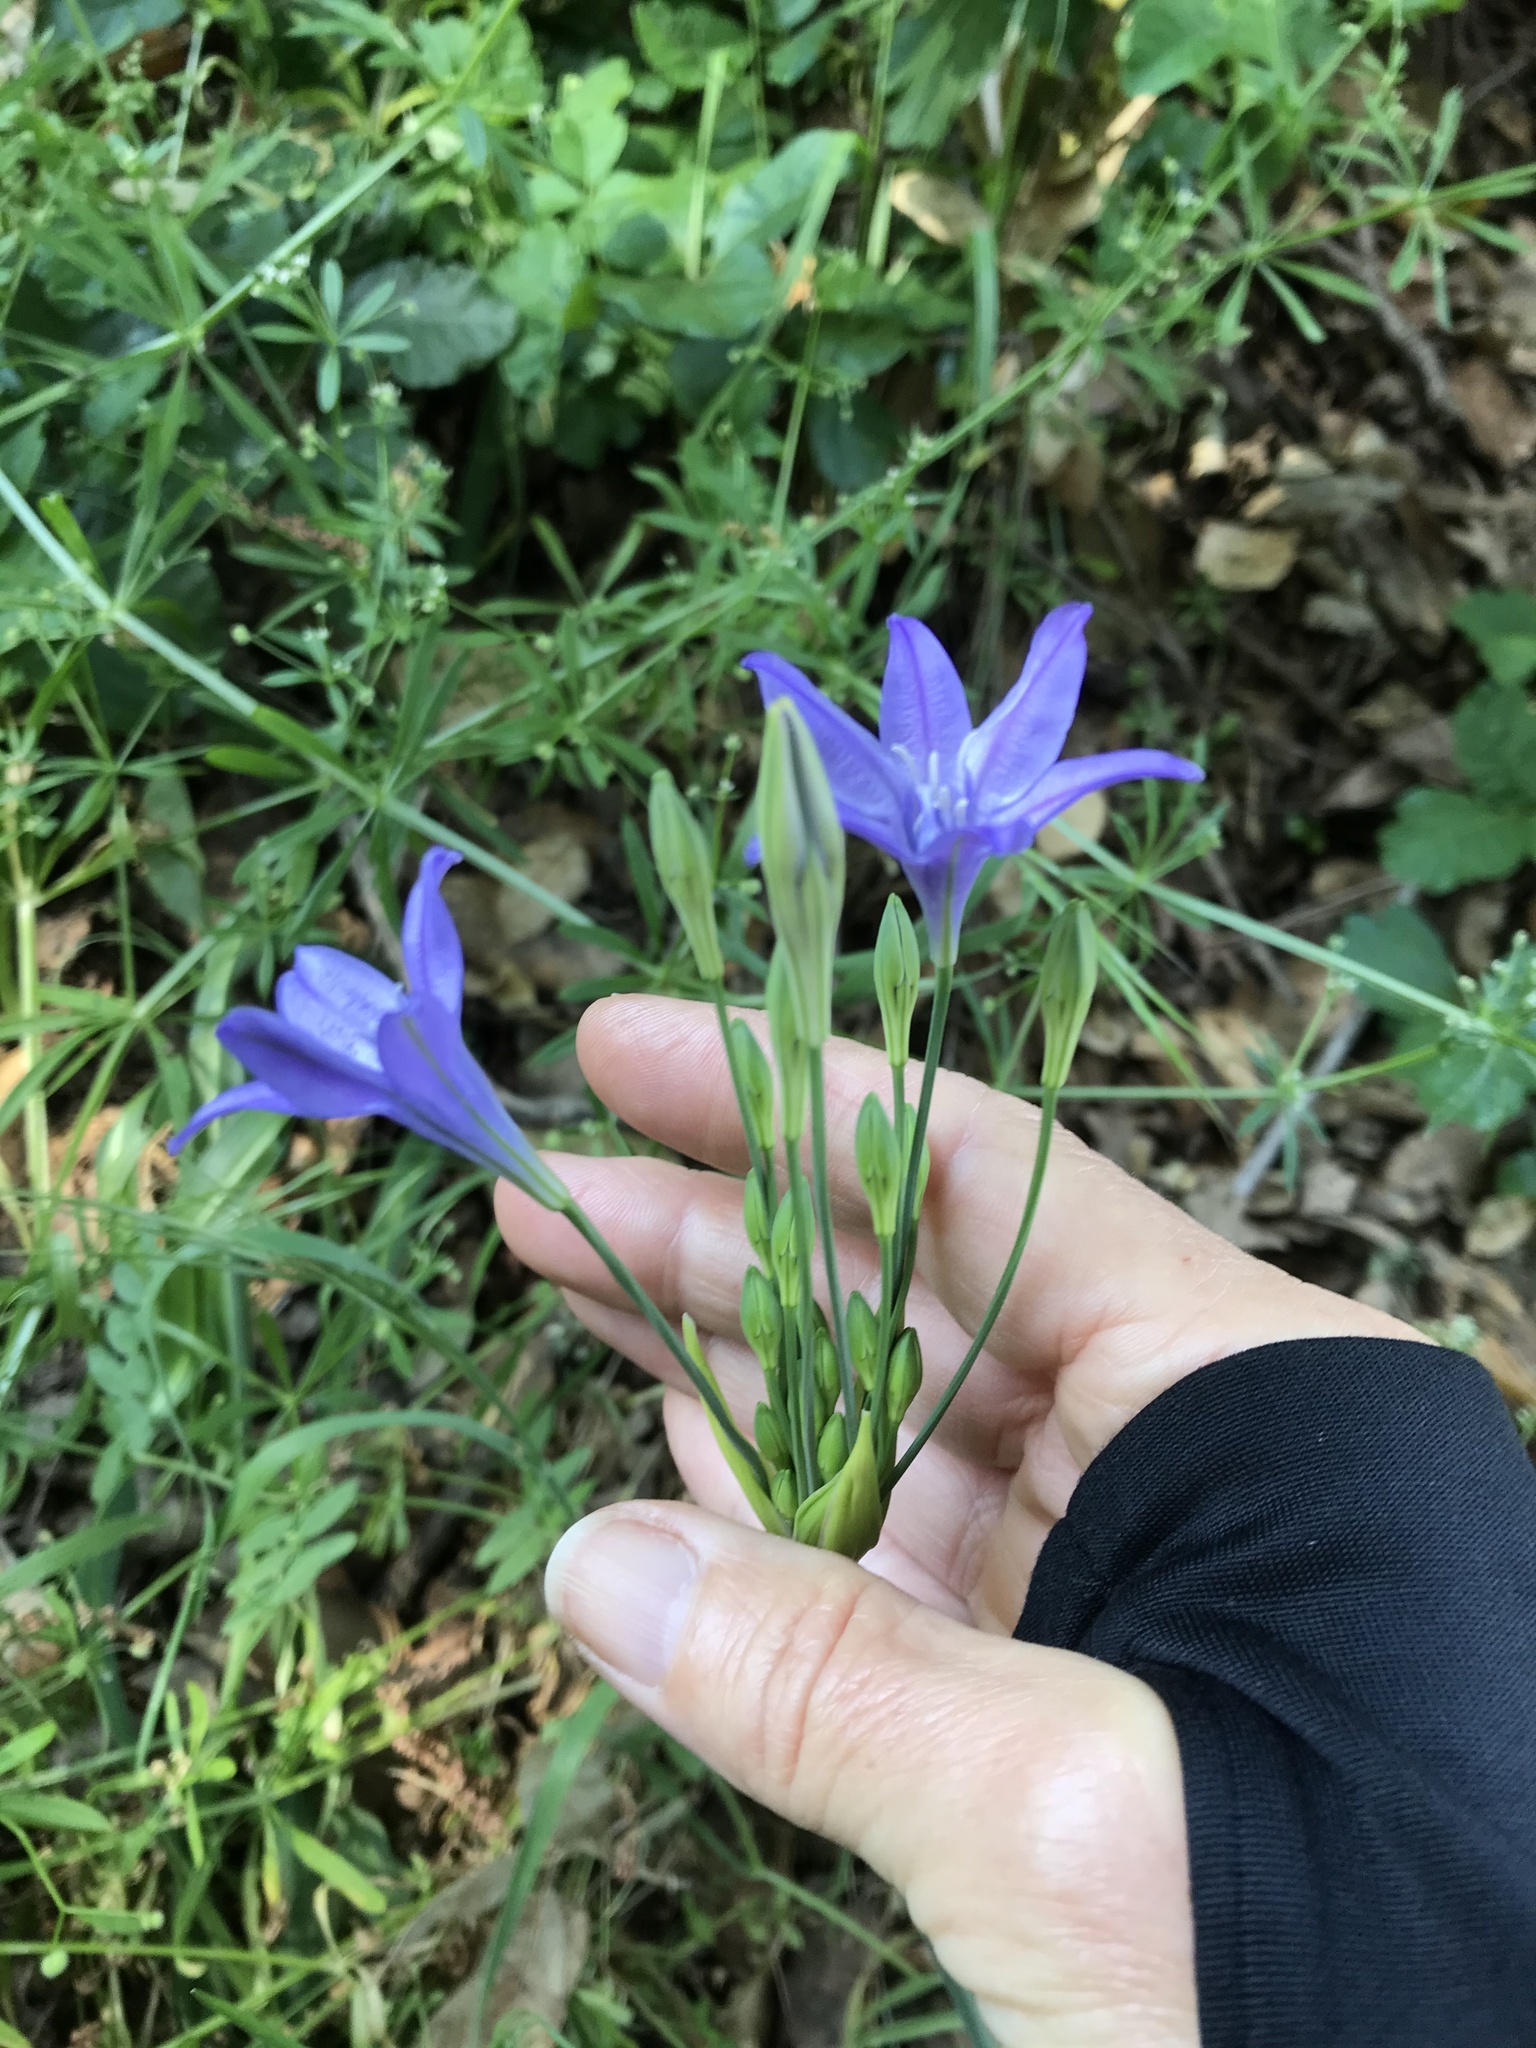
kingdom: Plantae
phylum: Tracheophyta
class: Liliopsida
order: Asparagales
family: Asparagaceae
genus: Triteleia
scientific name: Triteleia laxa
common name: Triplet-lily
